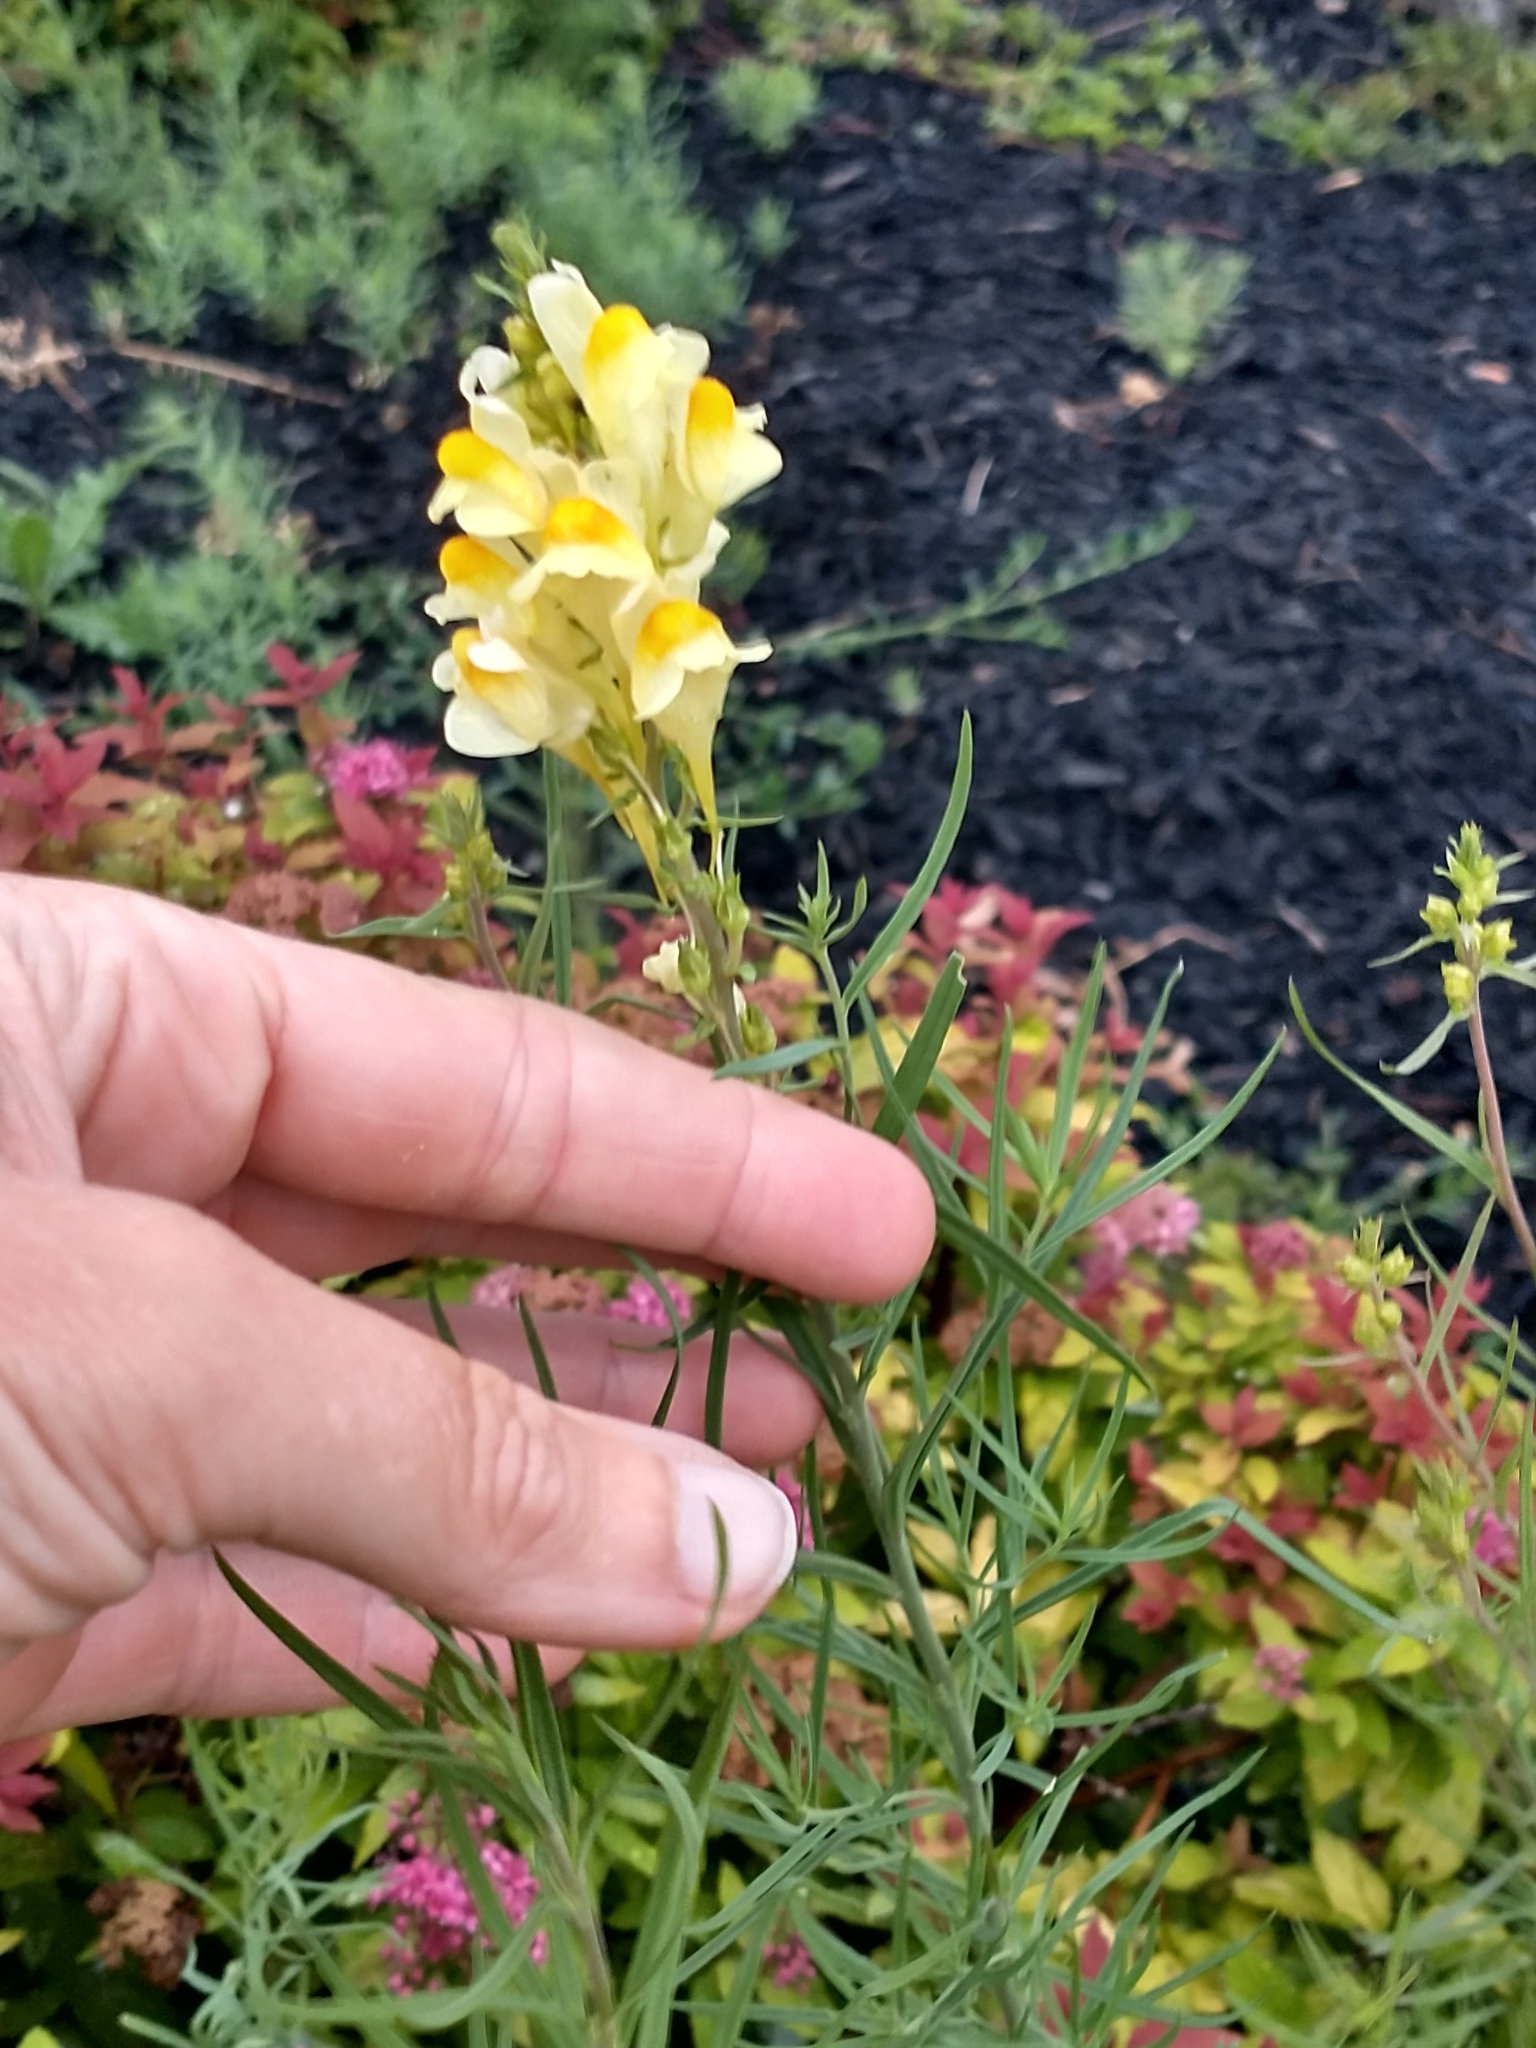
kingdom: Plantae
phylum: Tracheophyta
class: Magnoliopsida
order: Lamiales
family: Plantaginaceae
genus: Linaria
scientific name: Linaria vulgaris
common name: Butter and eggs
